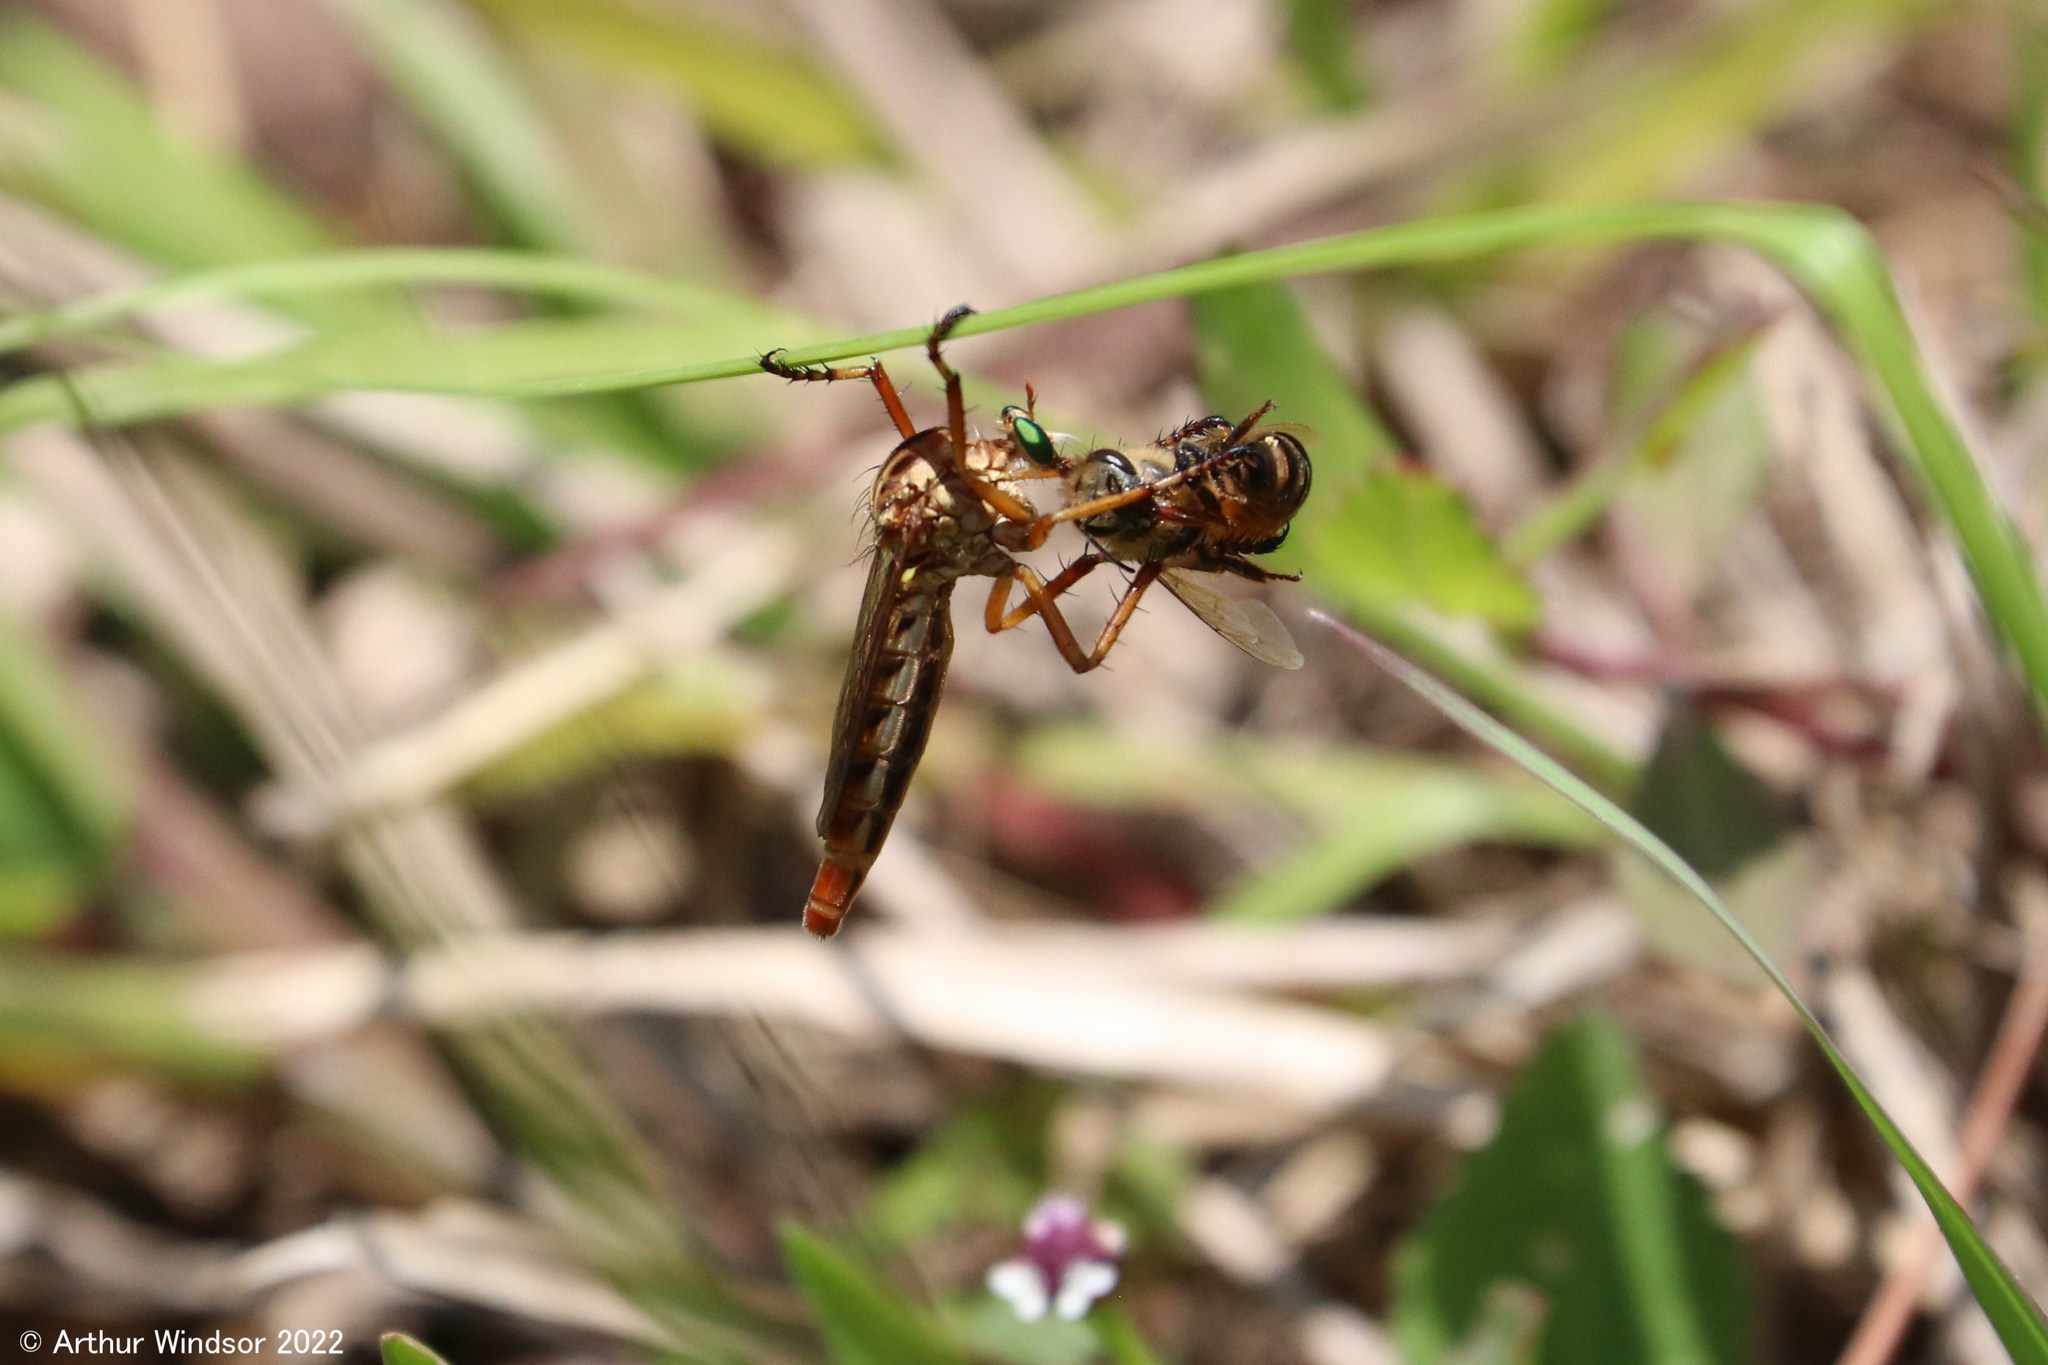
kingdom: Animalia
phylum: Arthropoda
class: Insecta
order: Diptera
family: Asilidae
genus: Diogmites
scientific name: Diogmites salutans
